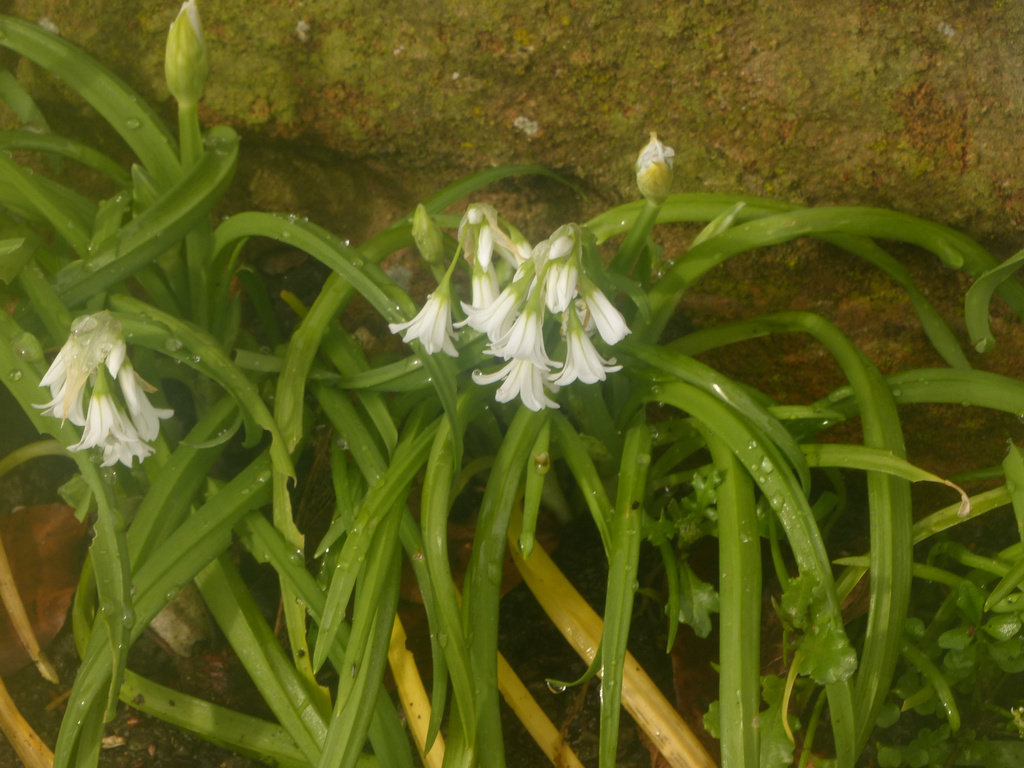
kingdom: Plantae
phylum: Tracheophyta
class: Liliopsida
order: Asparagales
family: Amaryllidaceae
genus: Allium
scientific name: Allium triquetrum
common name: Three-cornered garlic
